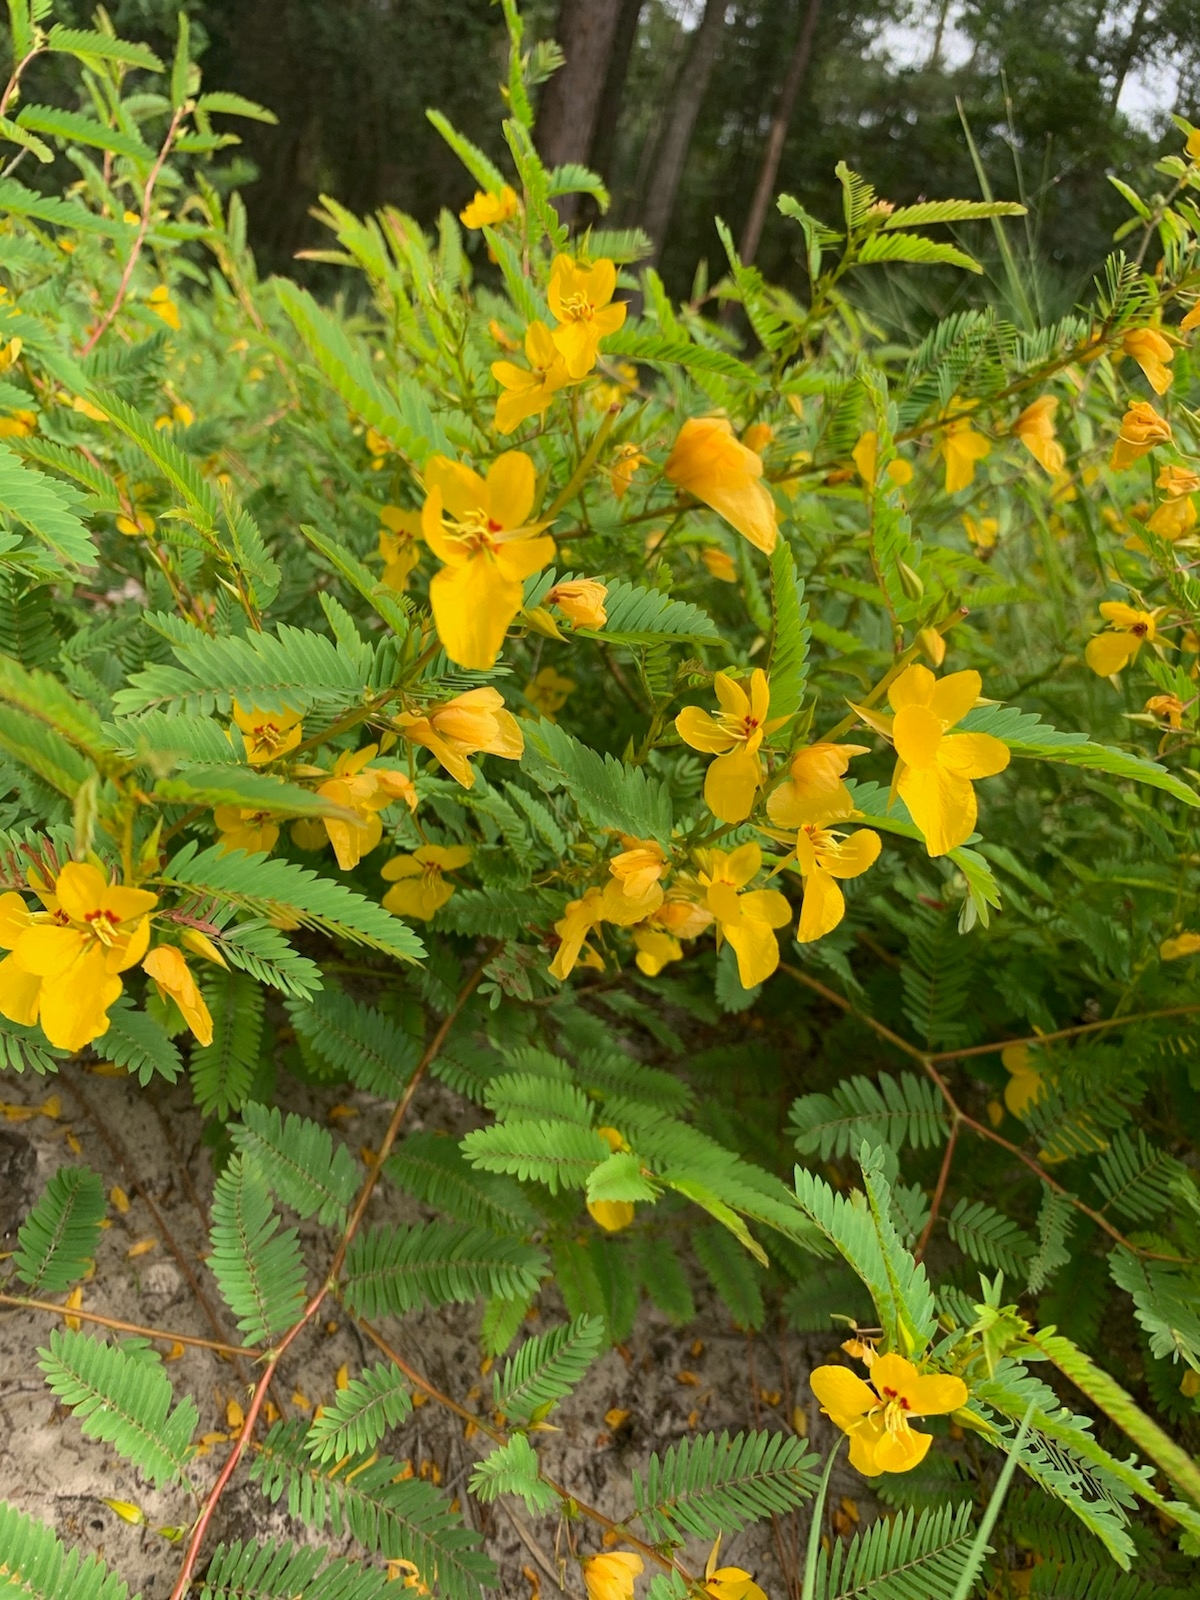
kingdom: Plantae
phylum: Tracheophyta
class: Magnoliopsida
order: Fabales
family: Fabaceae
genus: Chamaecrista
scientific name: Chamaecrista fasciculata
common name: Golden cassia
